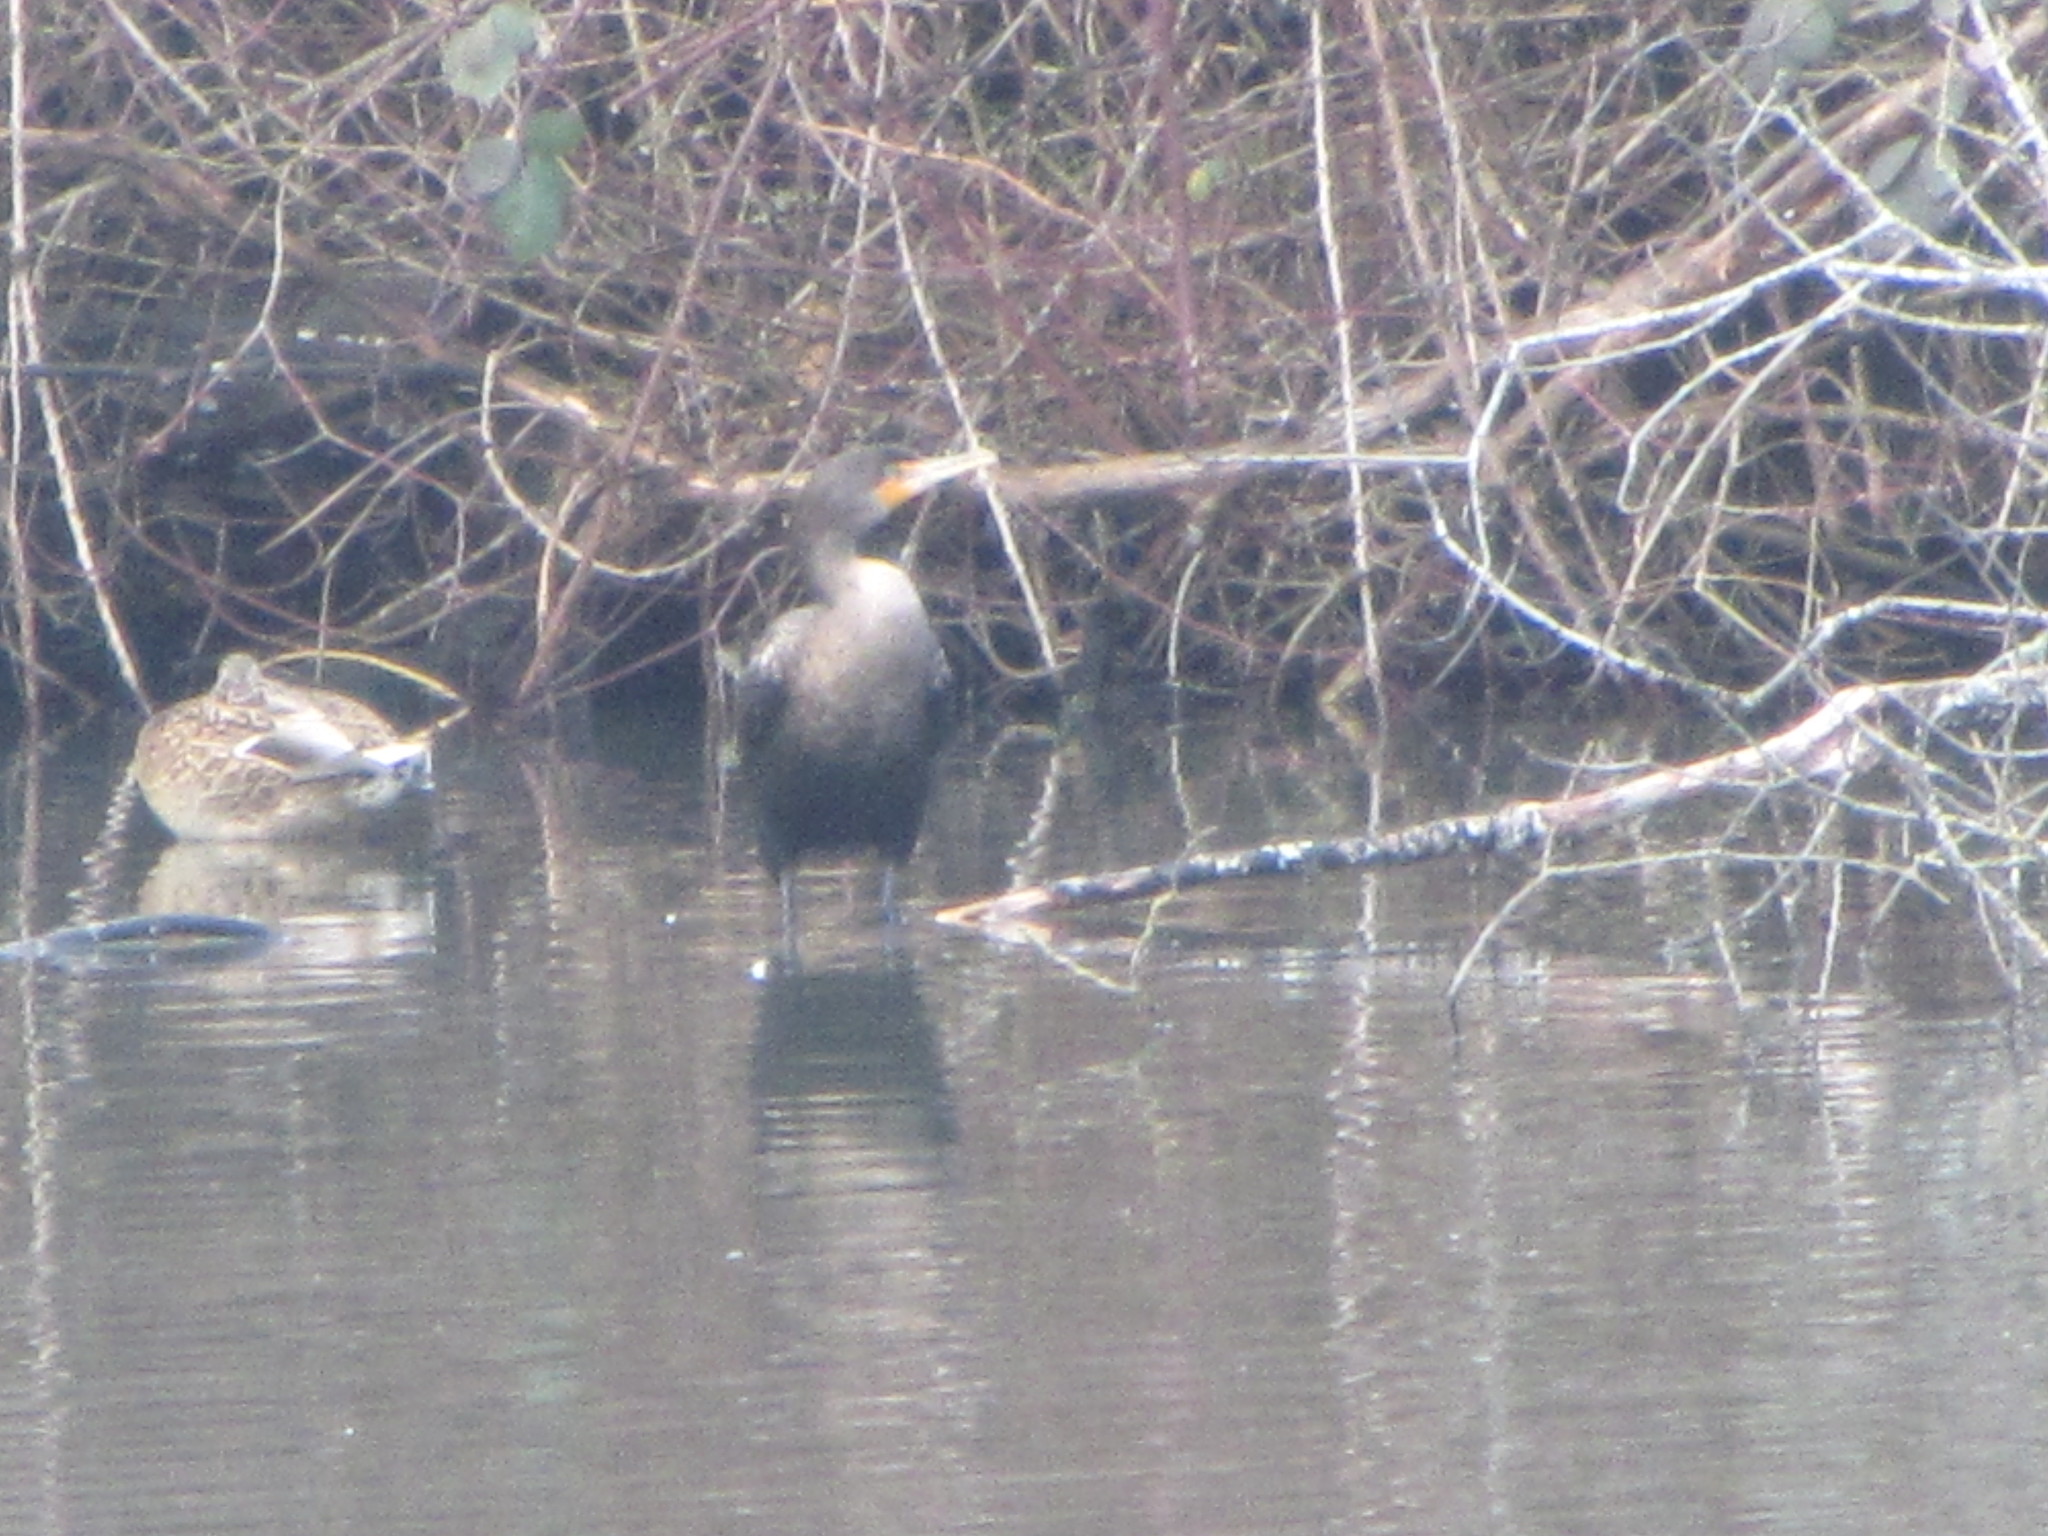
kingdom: Animalia
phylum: Chordata
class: Aves
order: Suliformes
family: Phalacrocoracidae
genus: Phalacrocorax
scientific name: Phalacrocorax auritus
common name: Double-crested cormorant
